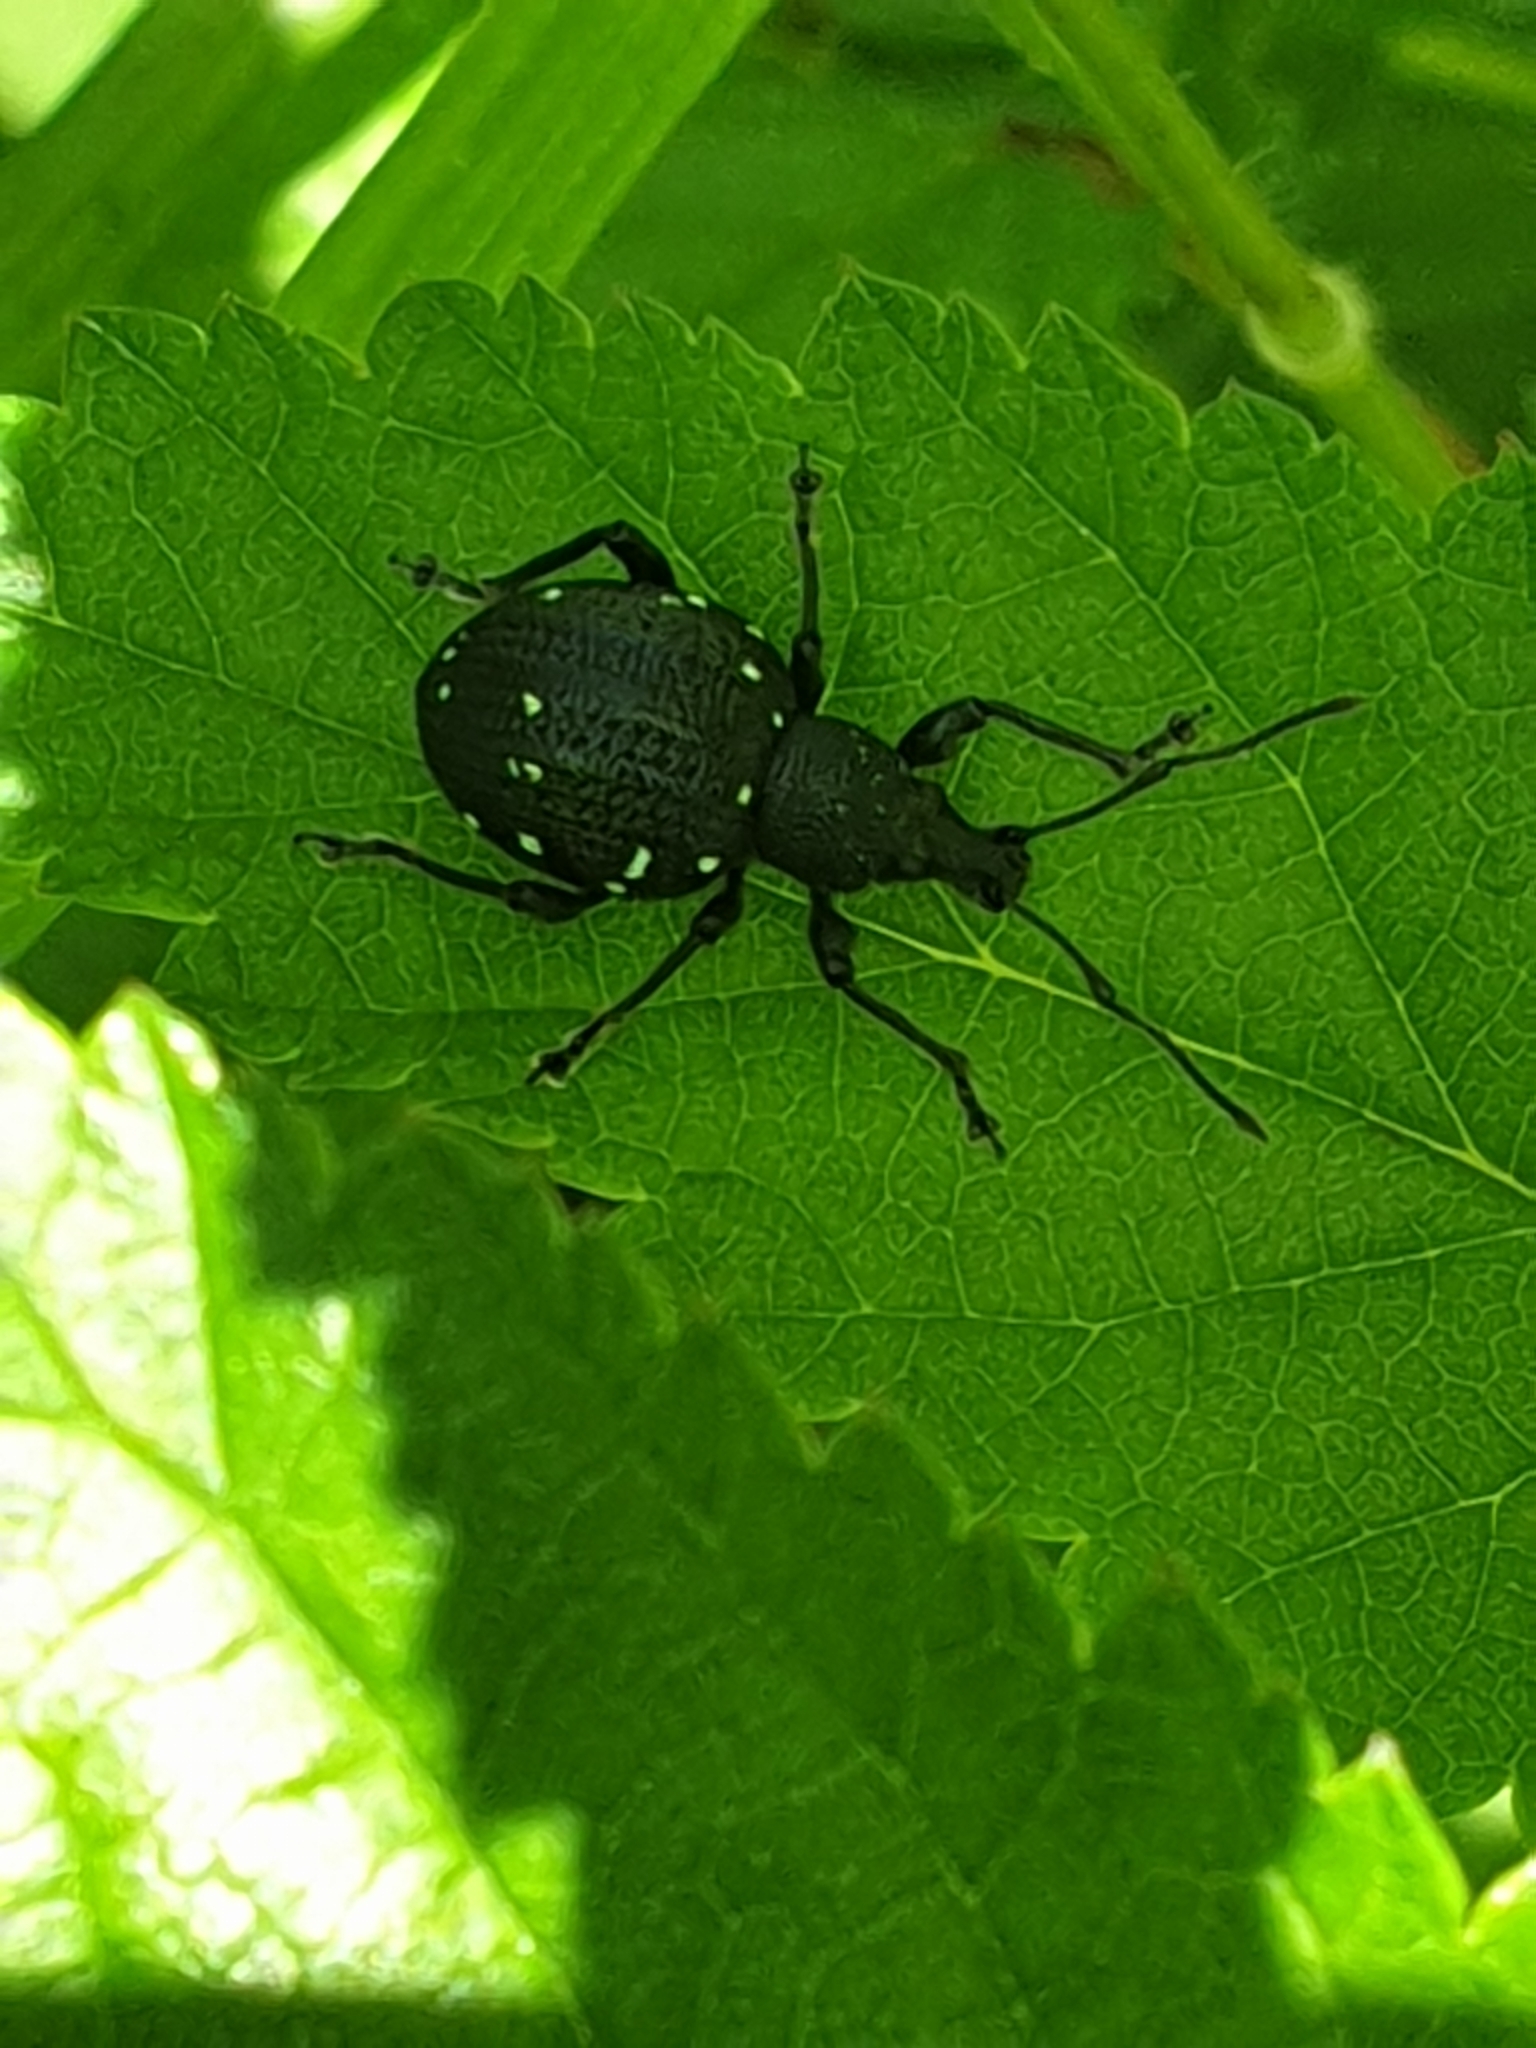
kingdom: Animalia
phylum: Arthropoda
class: Insecta
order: Coleoptera
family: Curculionidae
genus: Otiorhynchus
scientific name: Otiorhynchus gemmatus
